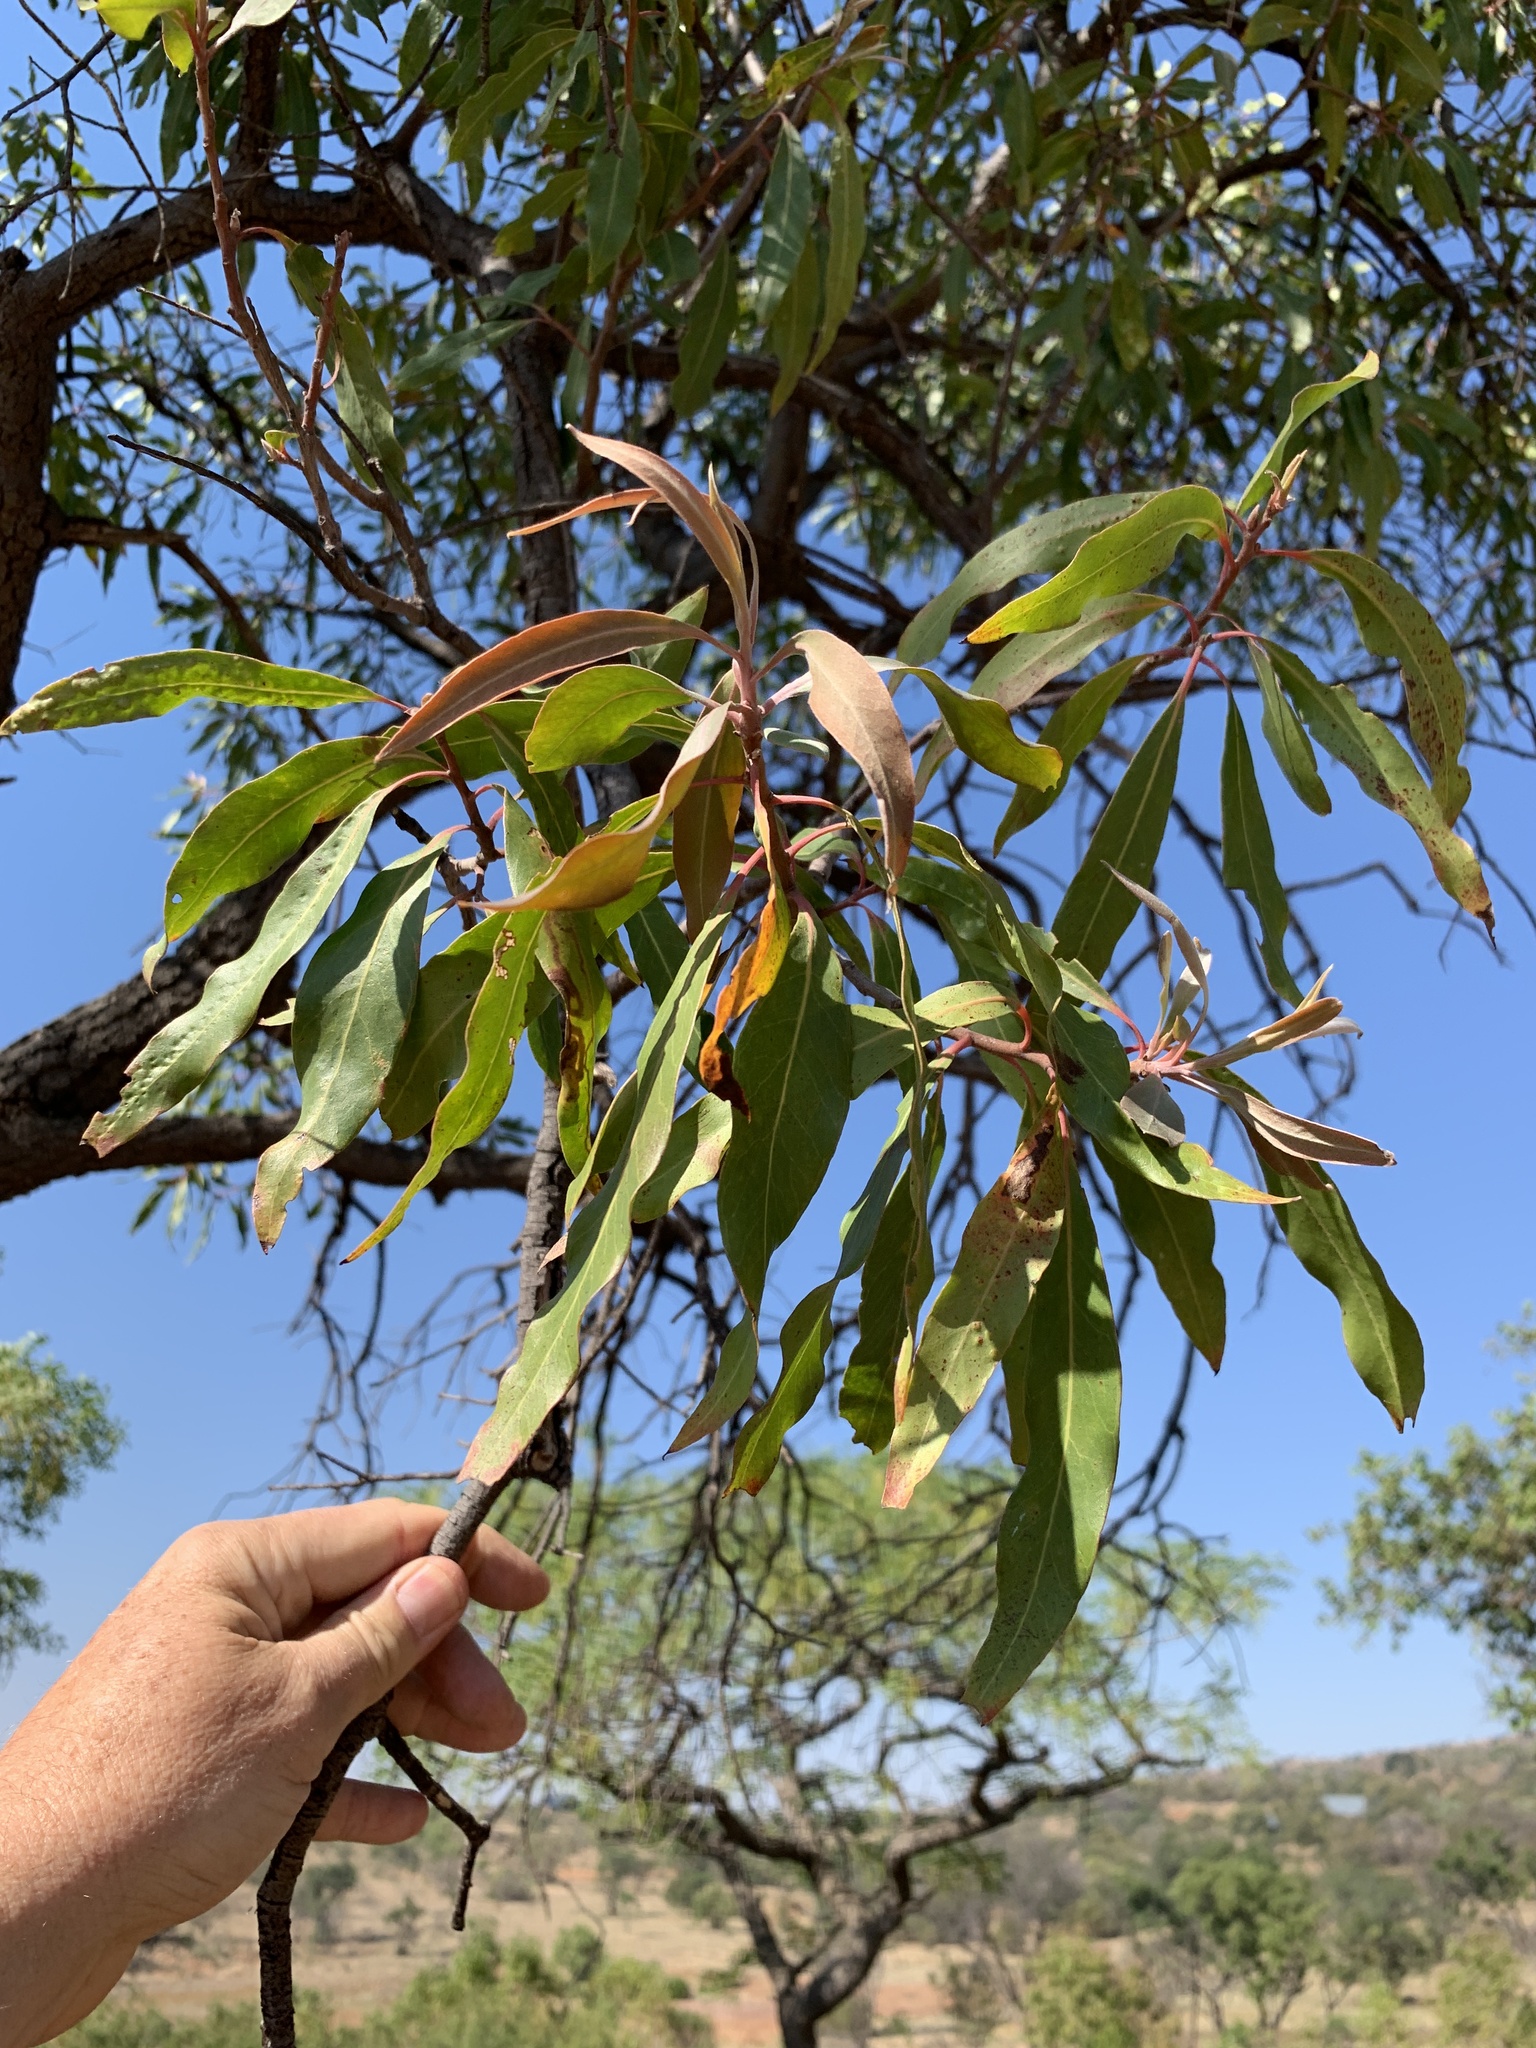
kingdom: Plantae
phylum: Tracheophyta
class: Magnoliopsida
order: Proteales
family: Proteaceae
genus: Faurea
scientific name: Faurea saligna
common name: African bean
